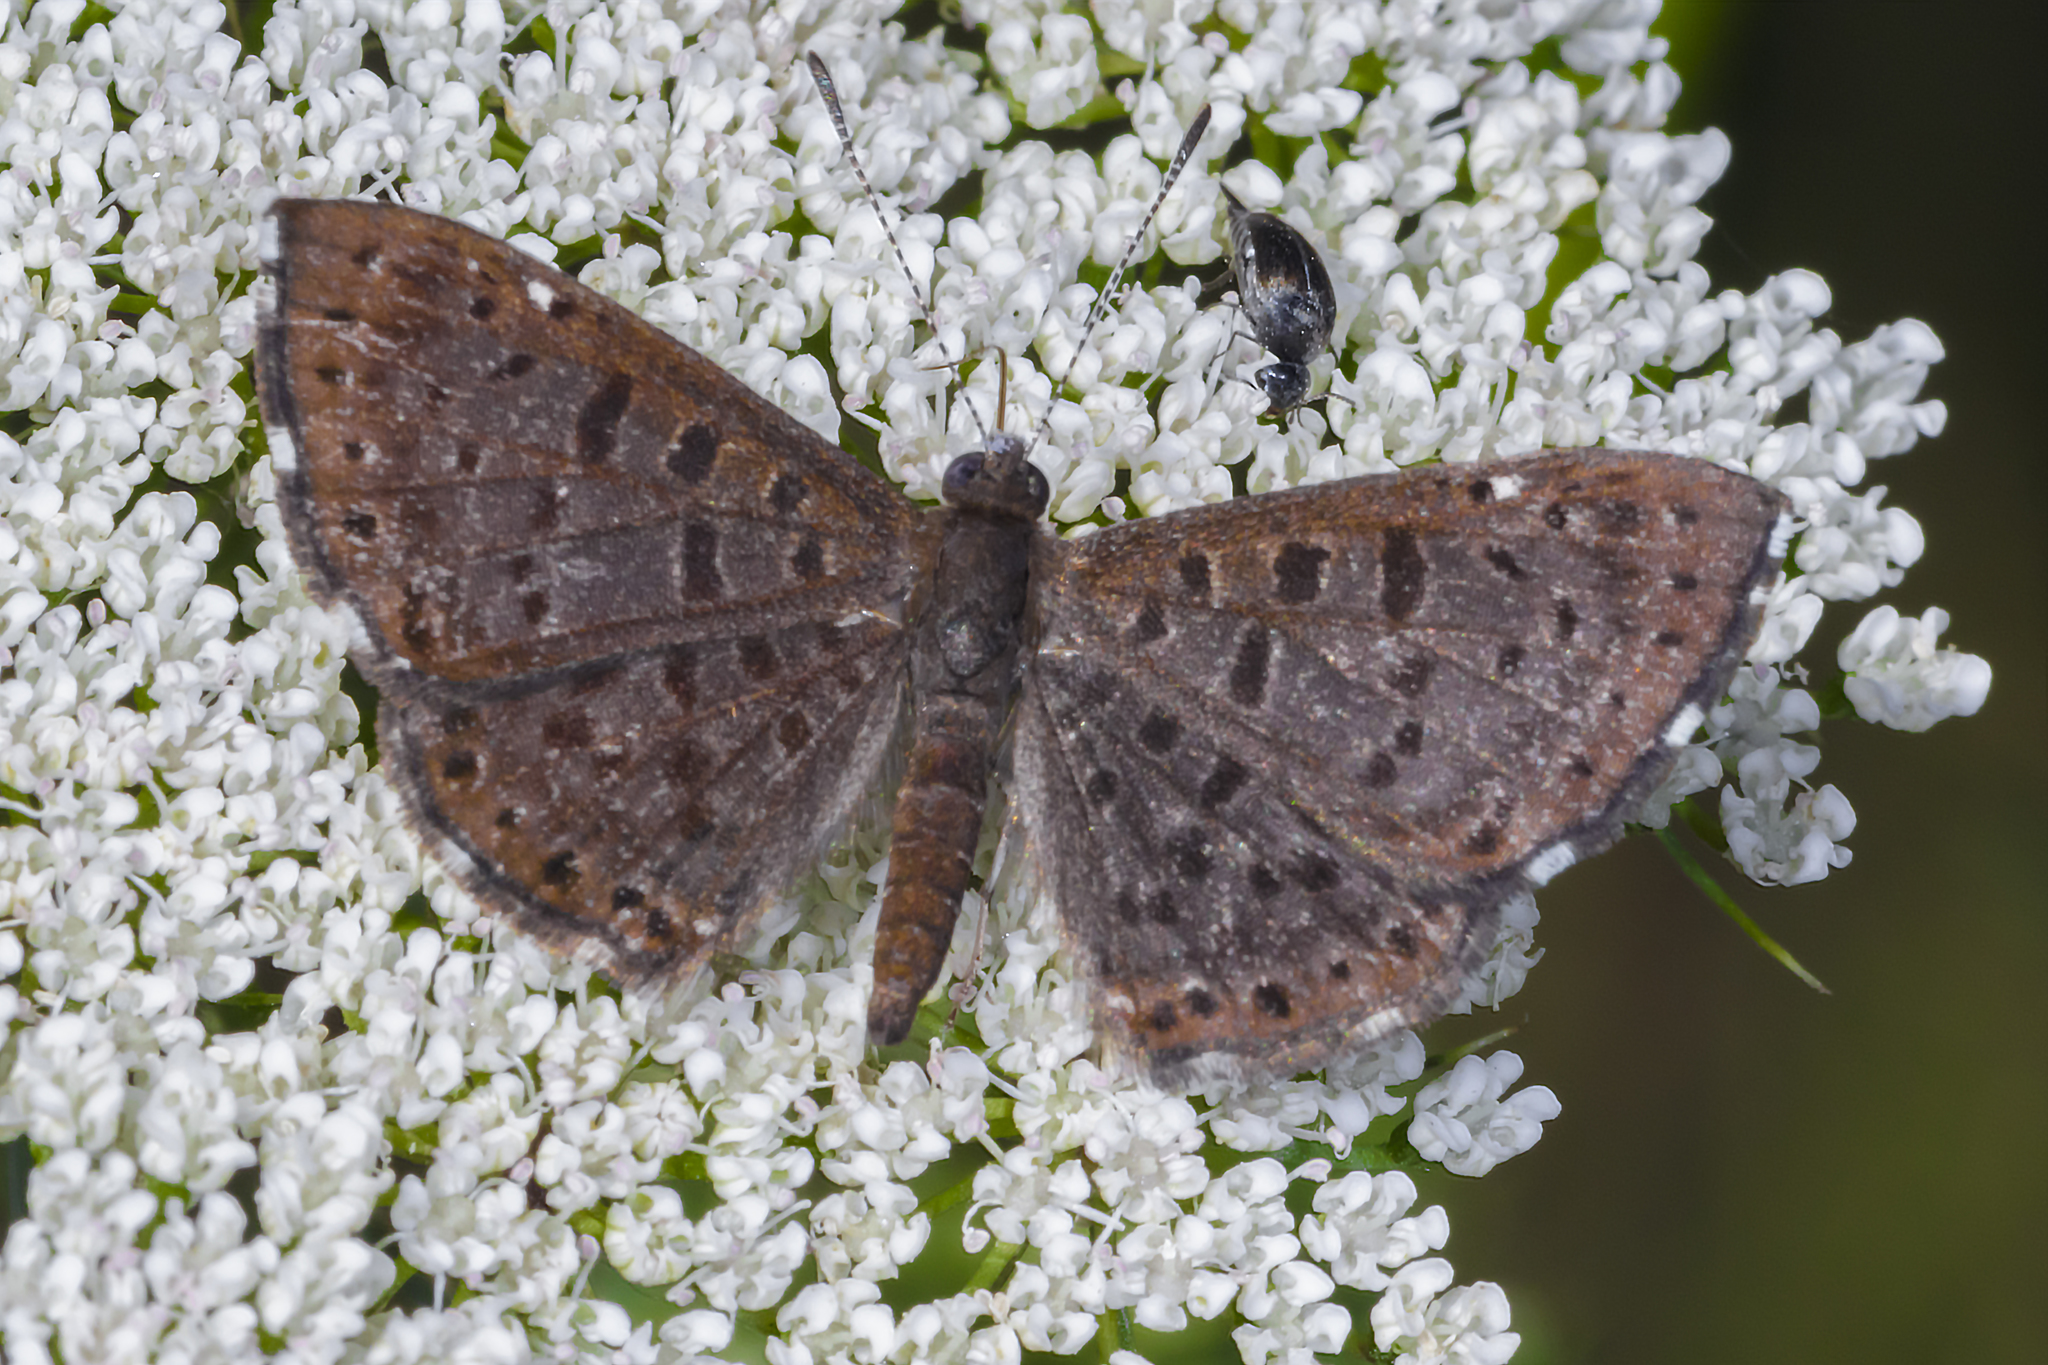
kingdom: Animalia
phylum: Arthropoda
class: Insecta
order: Lepidoptera
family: Riodinidae
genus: Teenie
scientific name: Teenie tinea
